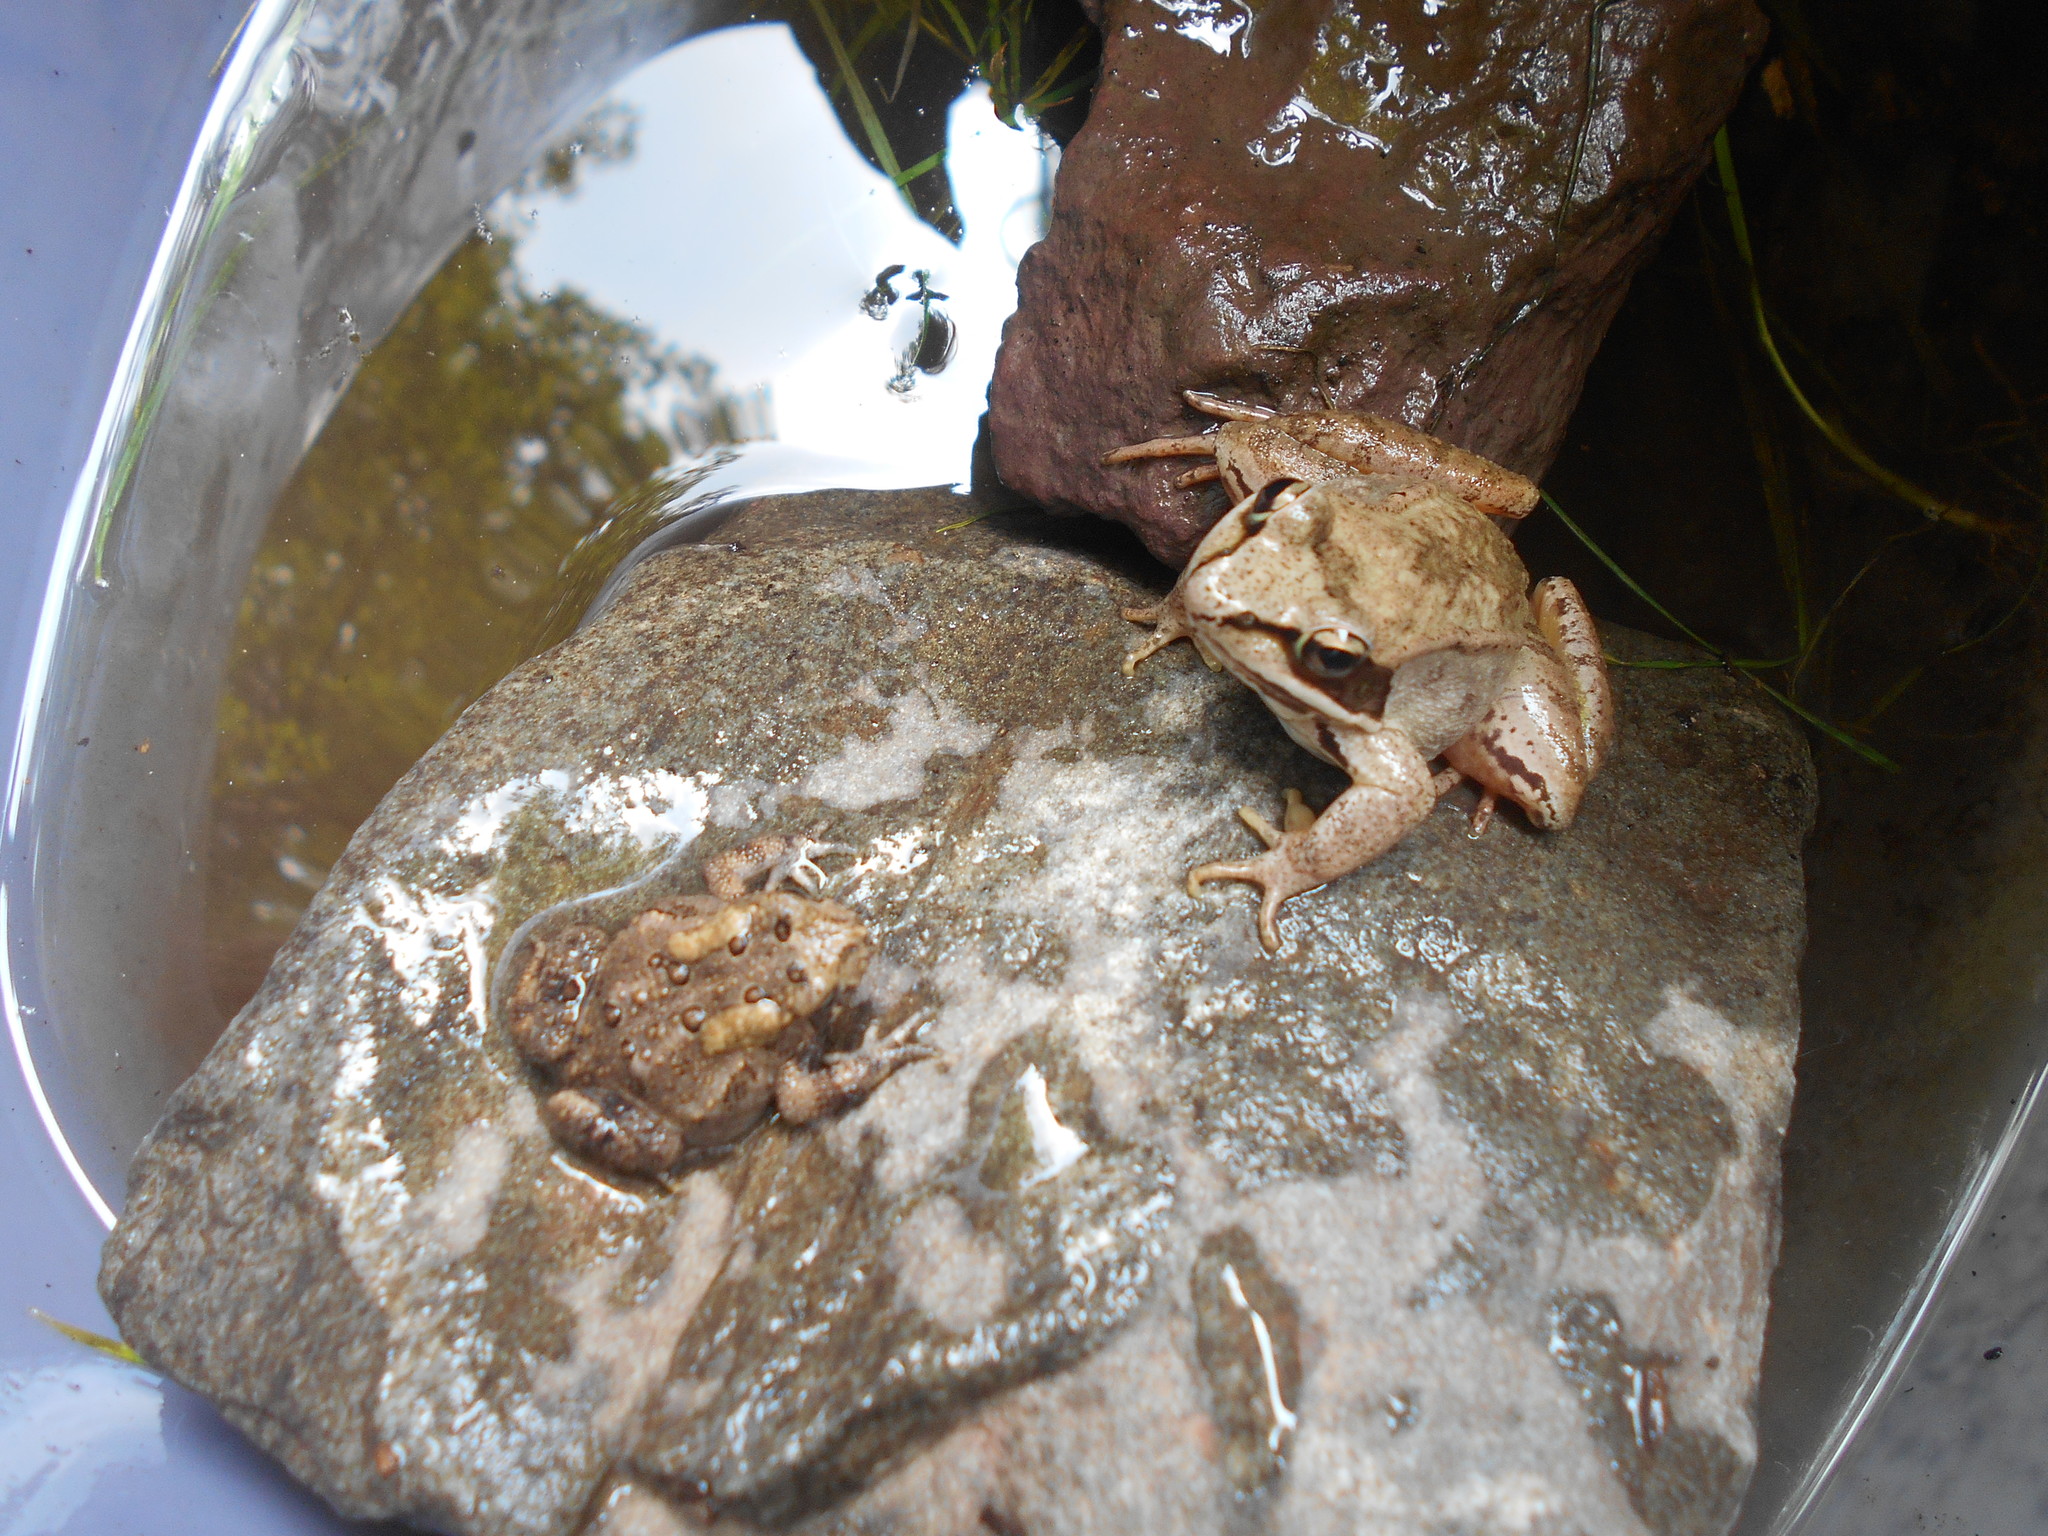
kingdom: Animalia
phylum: Chordata
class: Amphibia
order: Anura
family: Ranidae
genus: Lithobates
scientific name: Lithobates sylvaticus
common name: Wood frog
